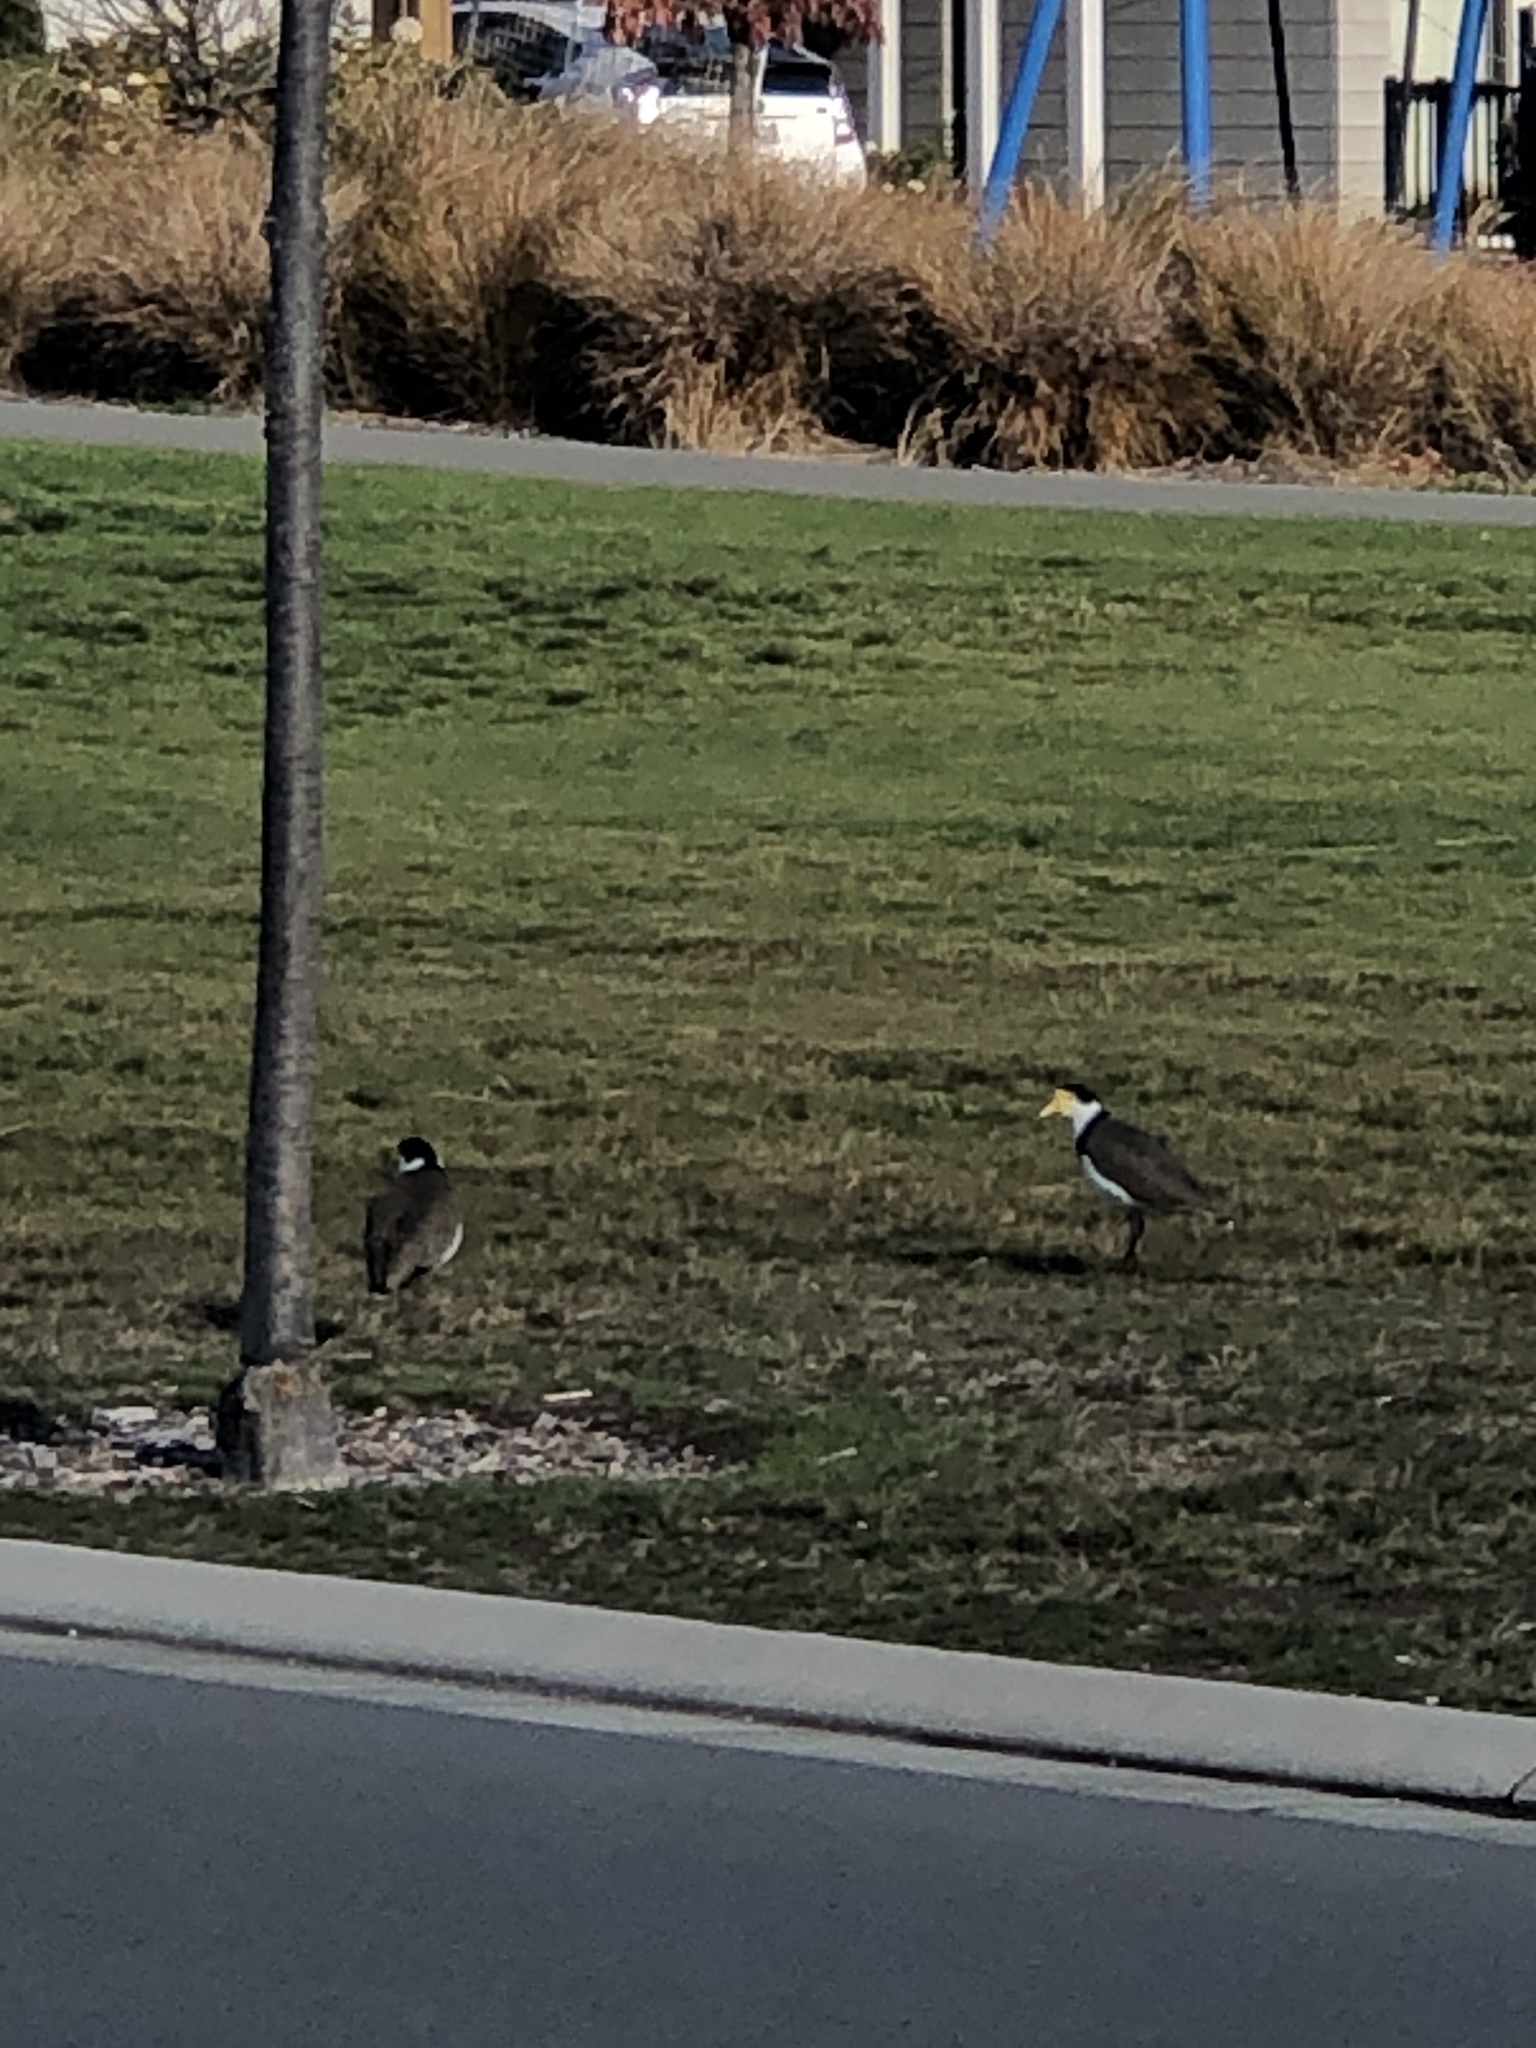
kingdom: Animalia
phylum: Chordata
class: Aves
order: Charadriiformes
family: Charadriidae
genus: Vanellus
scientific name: Vanellus miles
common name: Masked lapwing
